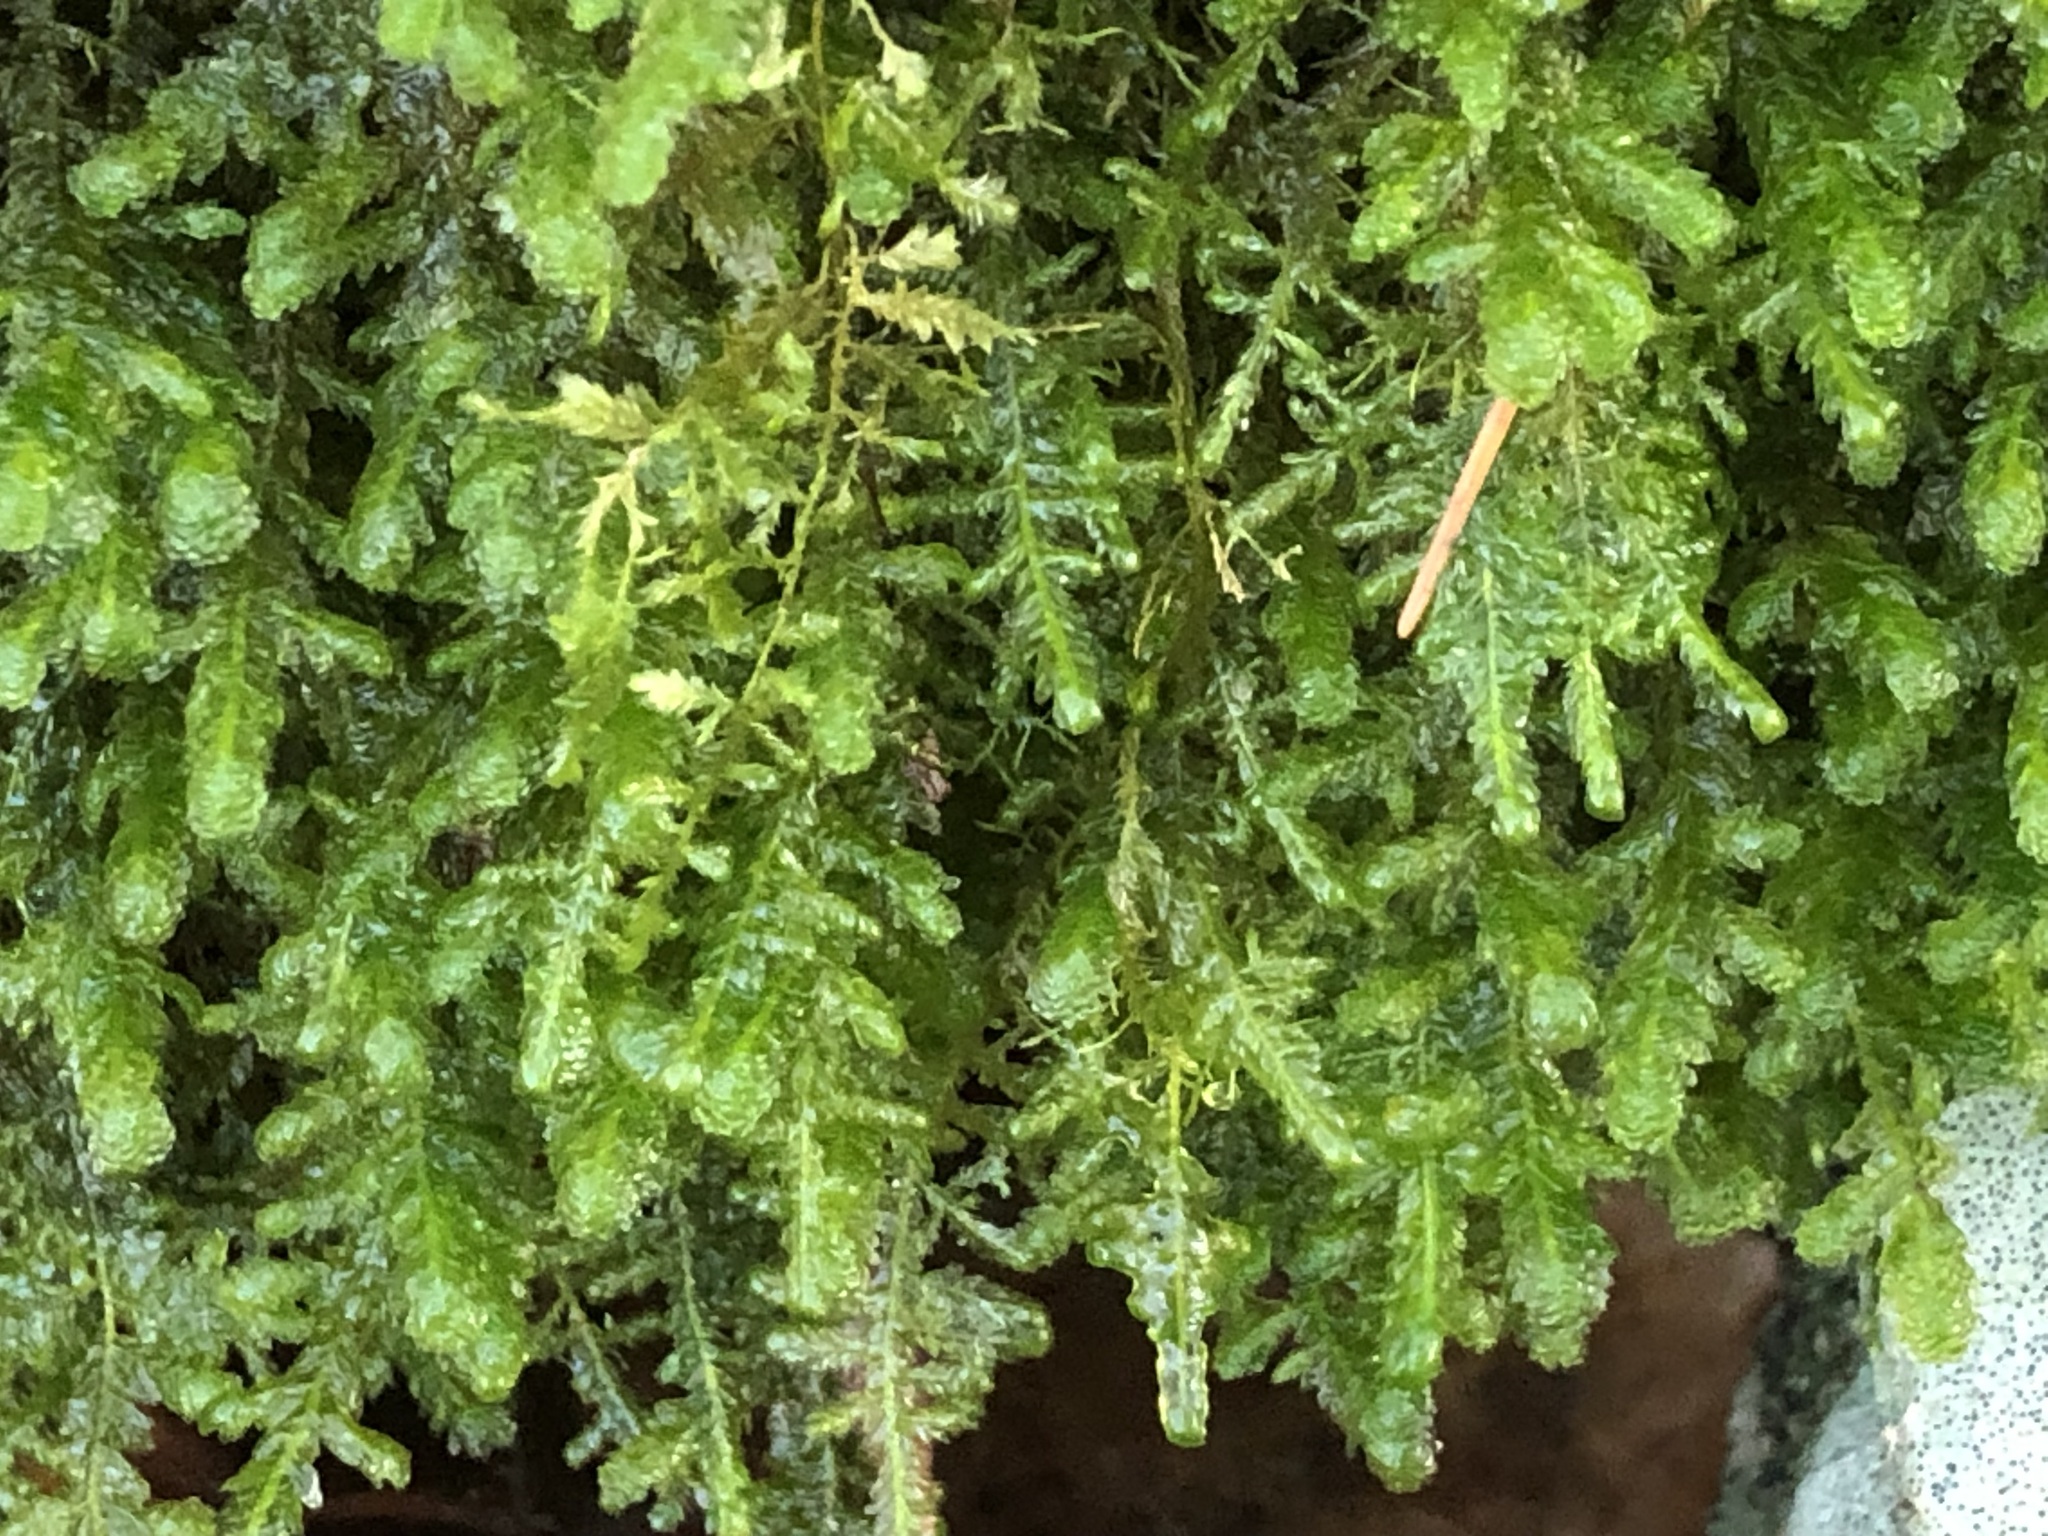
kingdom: Plantae
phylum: Bryophyta
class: Bryopsida
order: Hypnales
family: Neckeraceae
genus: Exsertotheca
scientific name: Exsertotheca crispa
